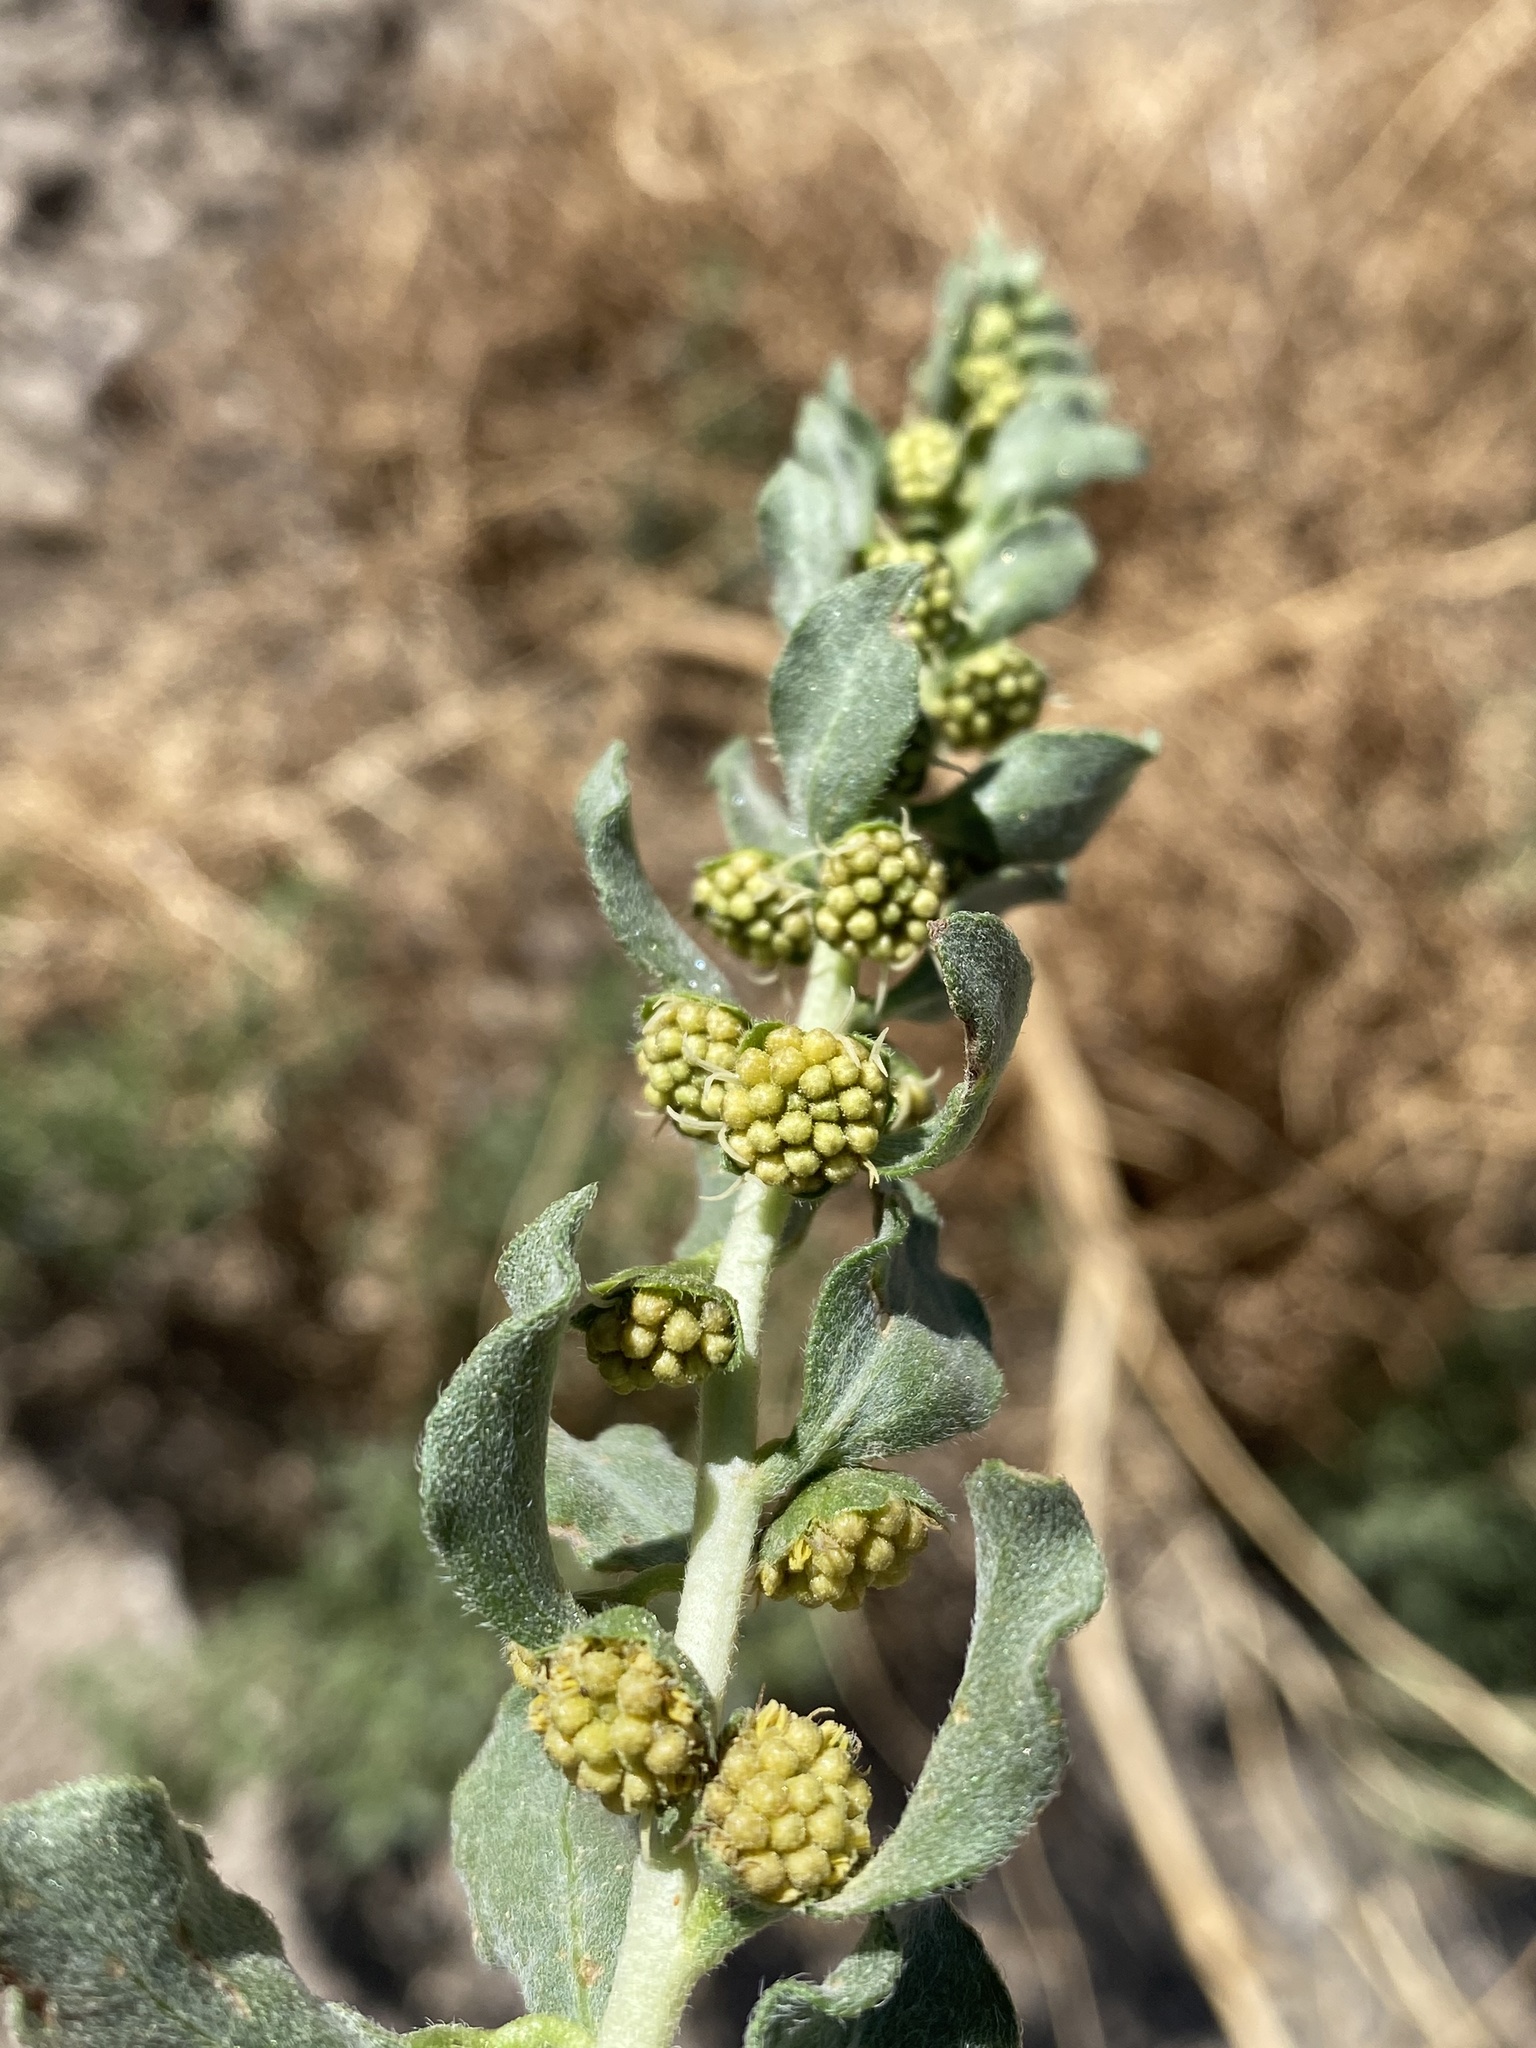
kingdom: Plantae
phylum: Tracheophyta
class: Magnoliopsida
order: Asterales
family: Asteraceae
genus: Iva
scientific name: Iva axillaris
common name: Poverty sumpweed
